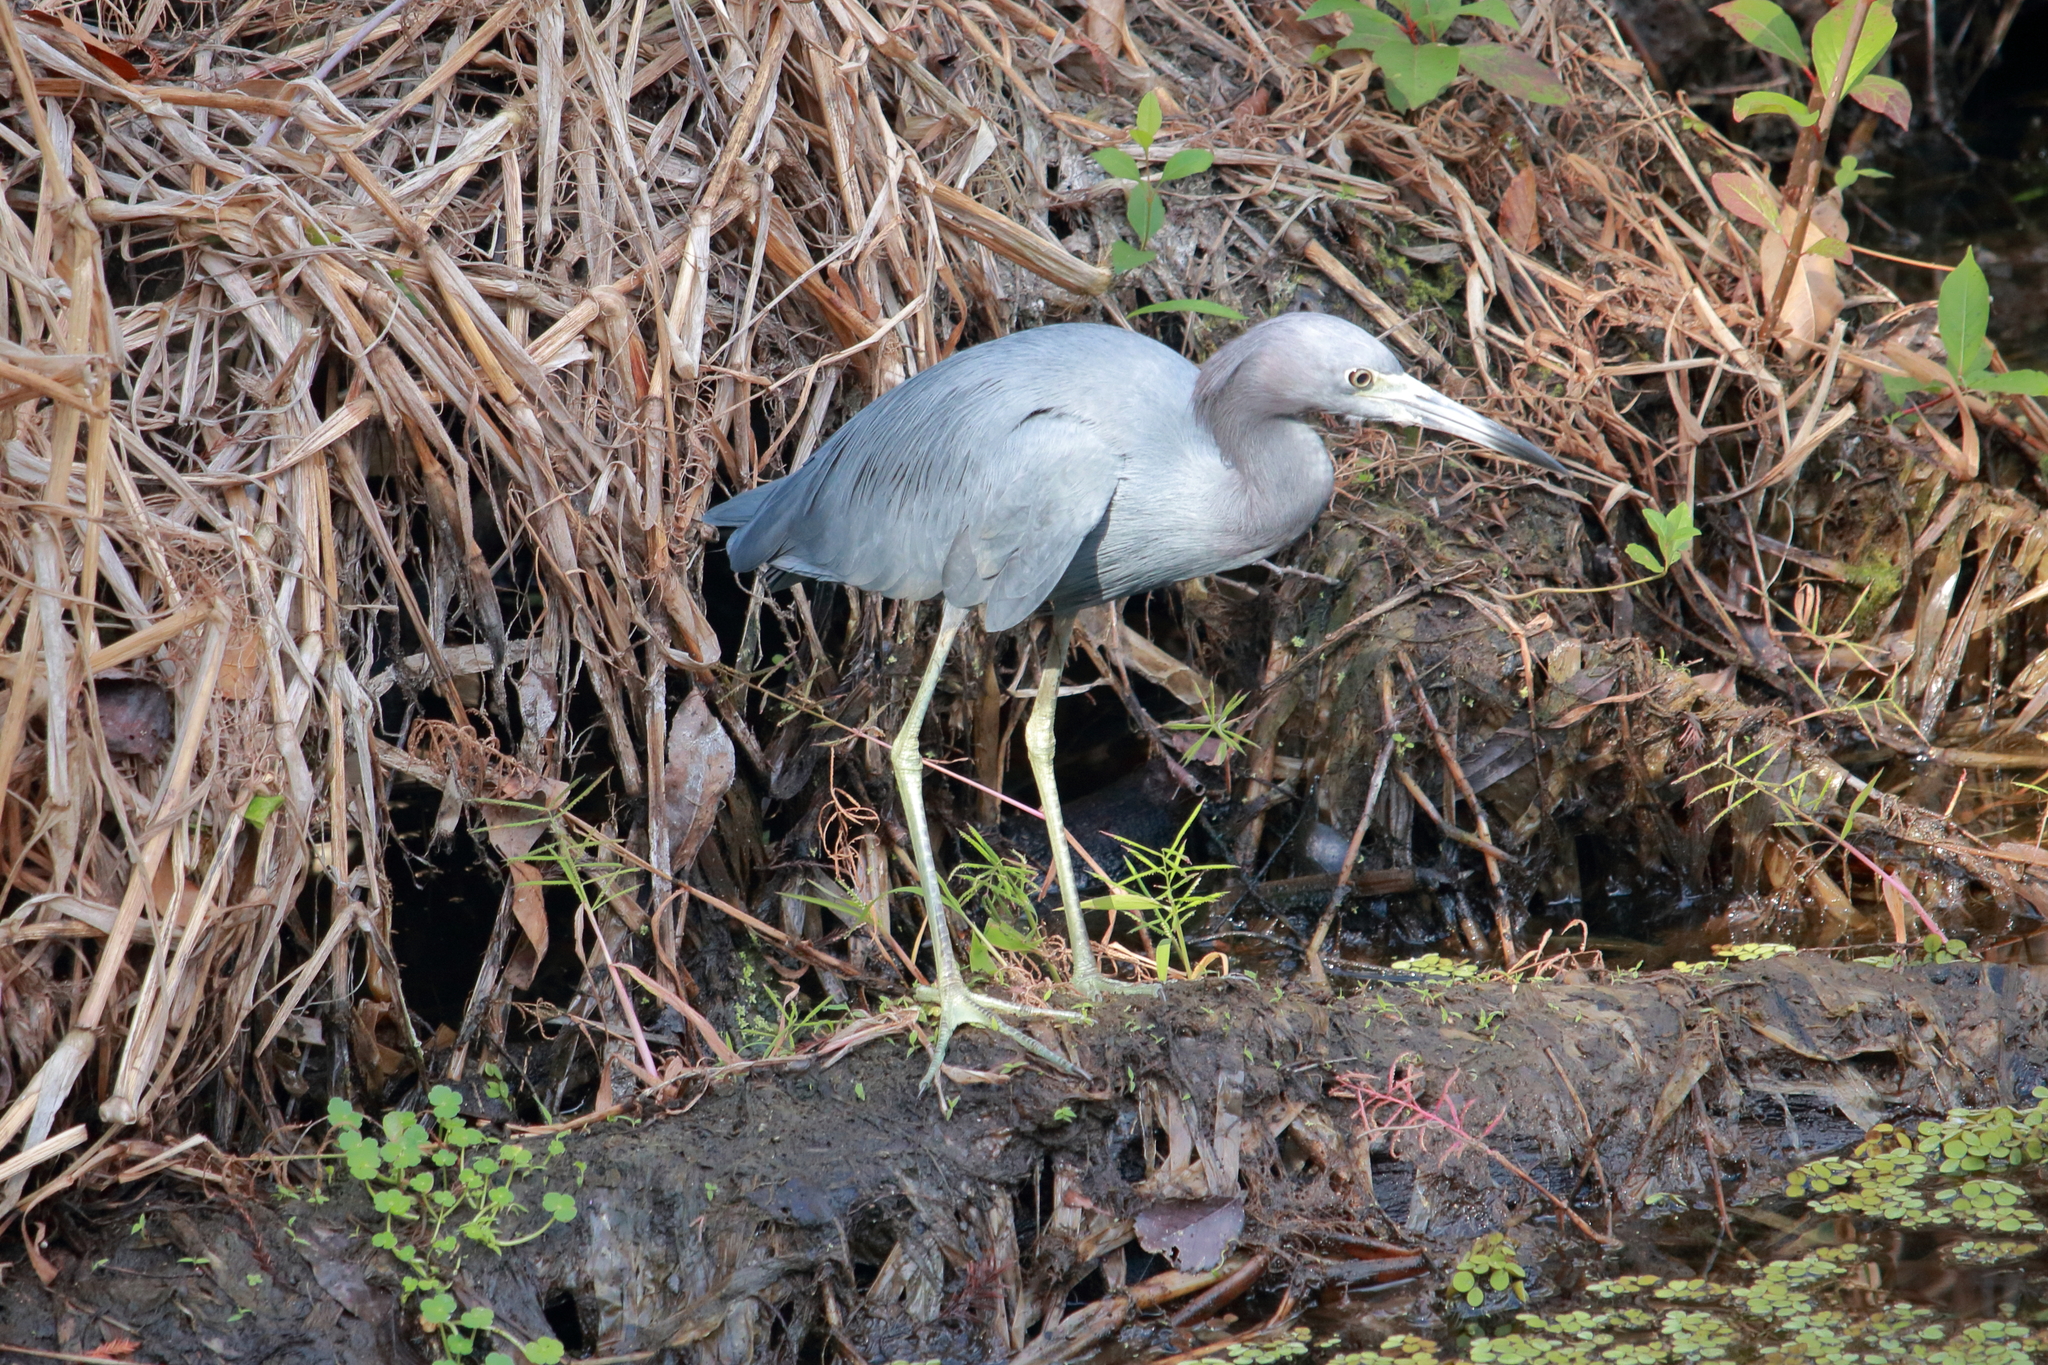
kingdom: Animalia
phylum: Chordata
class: Aves
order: Pelecaniformes
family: Ardeidae
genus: Egretta
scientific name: Egretta caerulea
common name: Little blue heron
